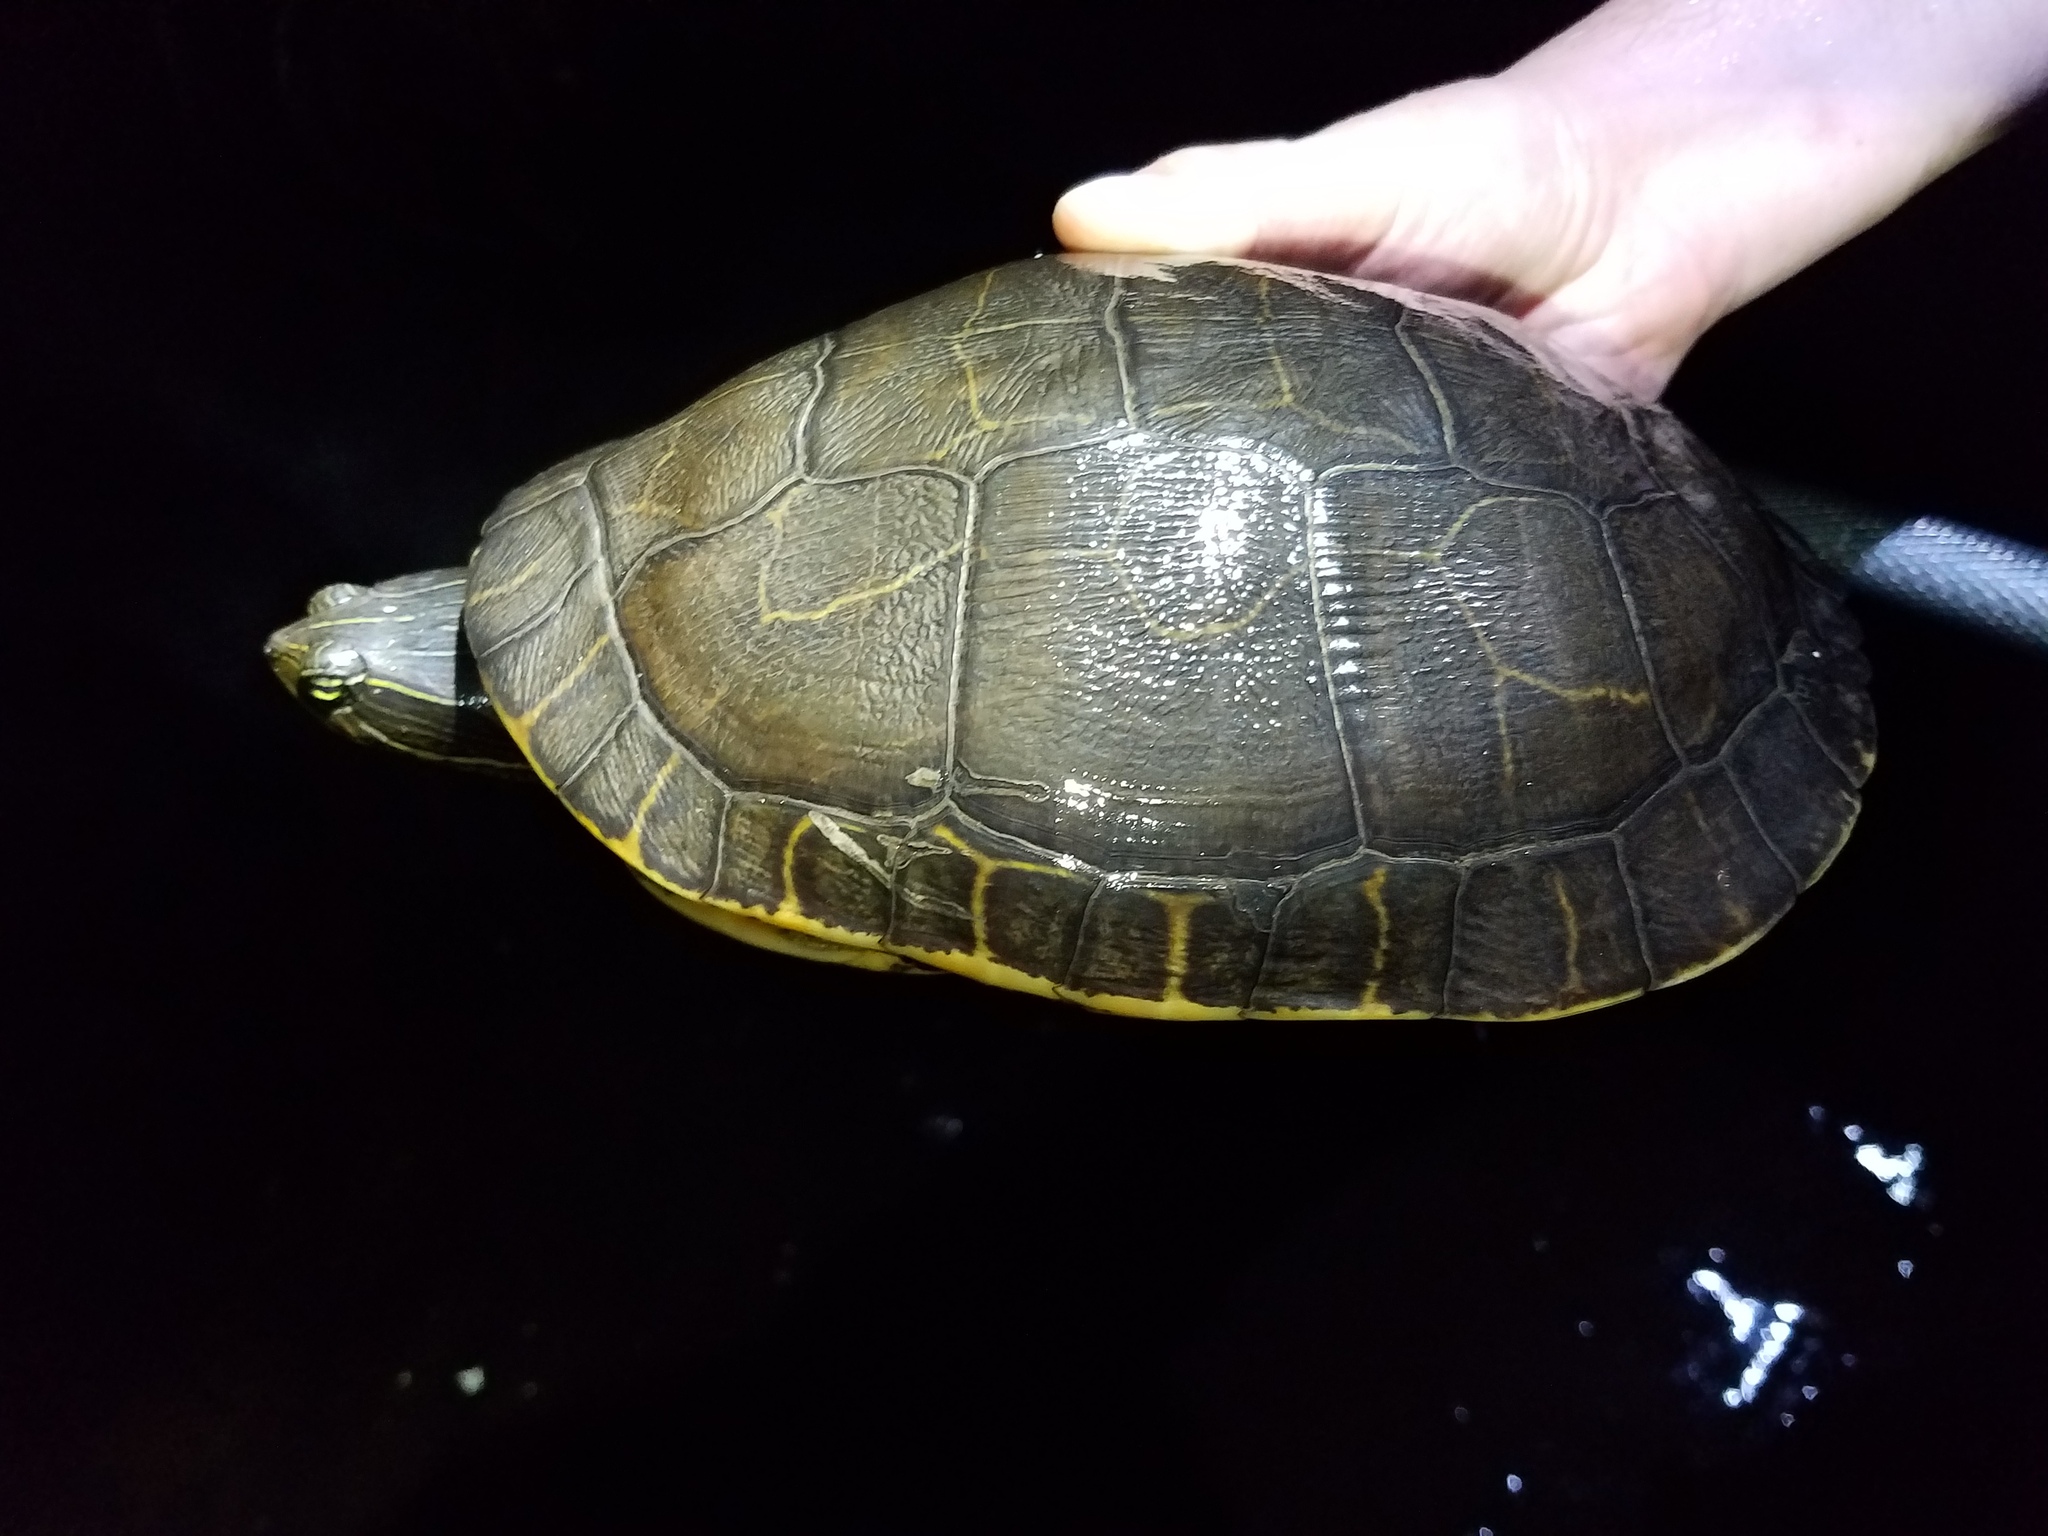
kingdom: Animalia
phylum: Chordata
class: Testudines
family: Emydidae
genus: Deirochelys
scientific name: Deirochelys reticularia
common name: Chicken turtle
